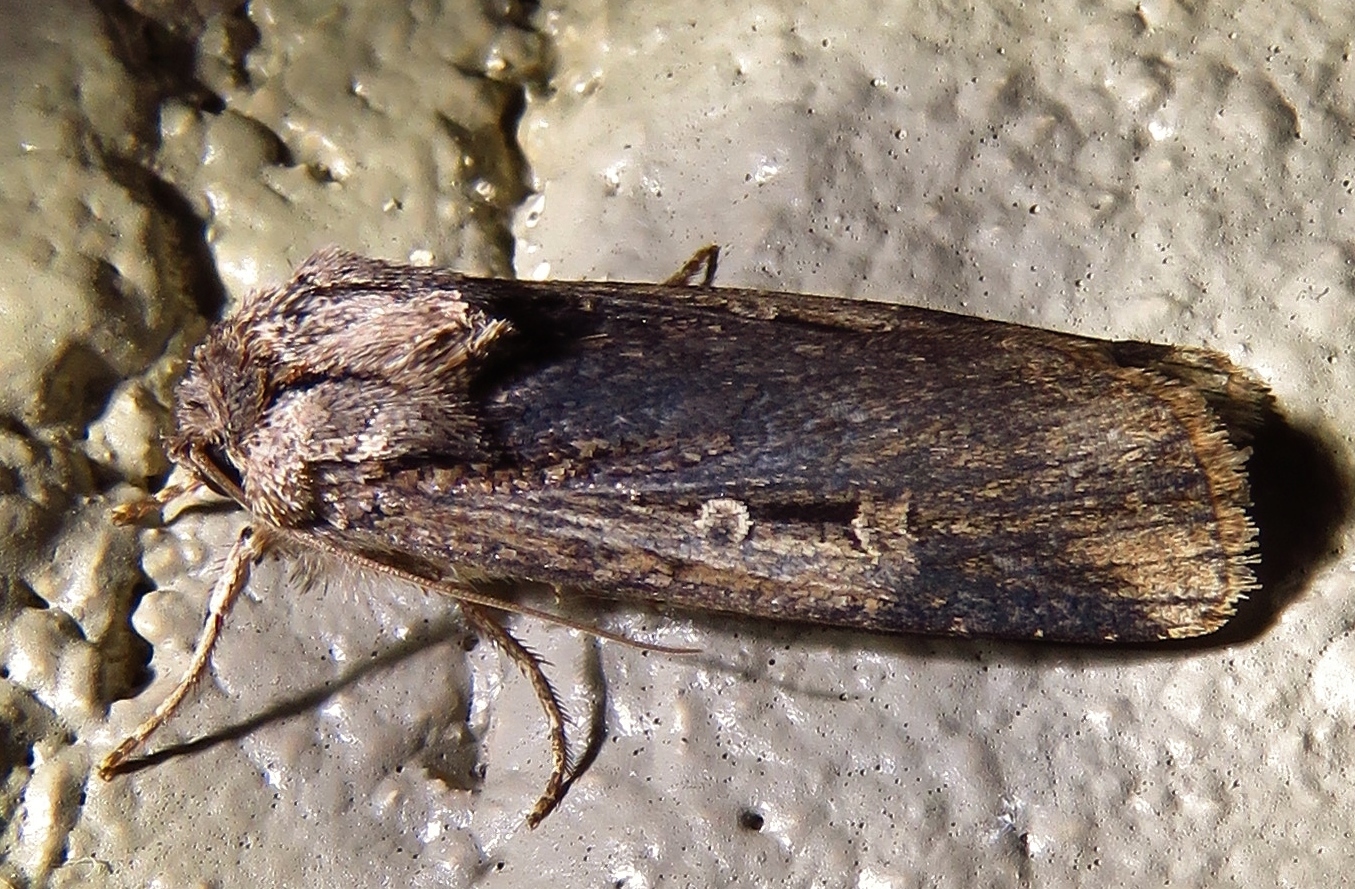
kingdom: Animalia
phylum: Arthropoda
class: Insecta
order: Lepidoptera
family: Noctuidae
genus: Feltia
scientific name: Feltia subterranea
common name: Granulate cutworm
